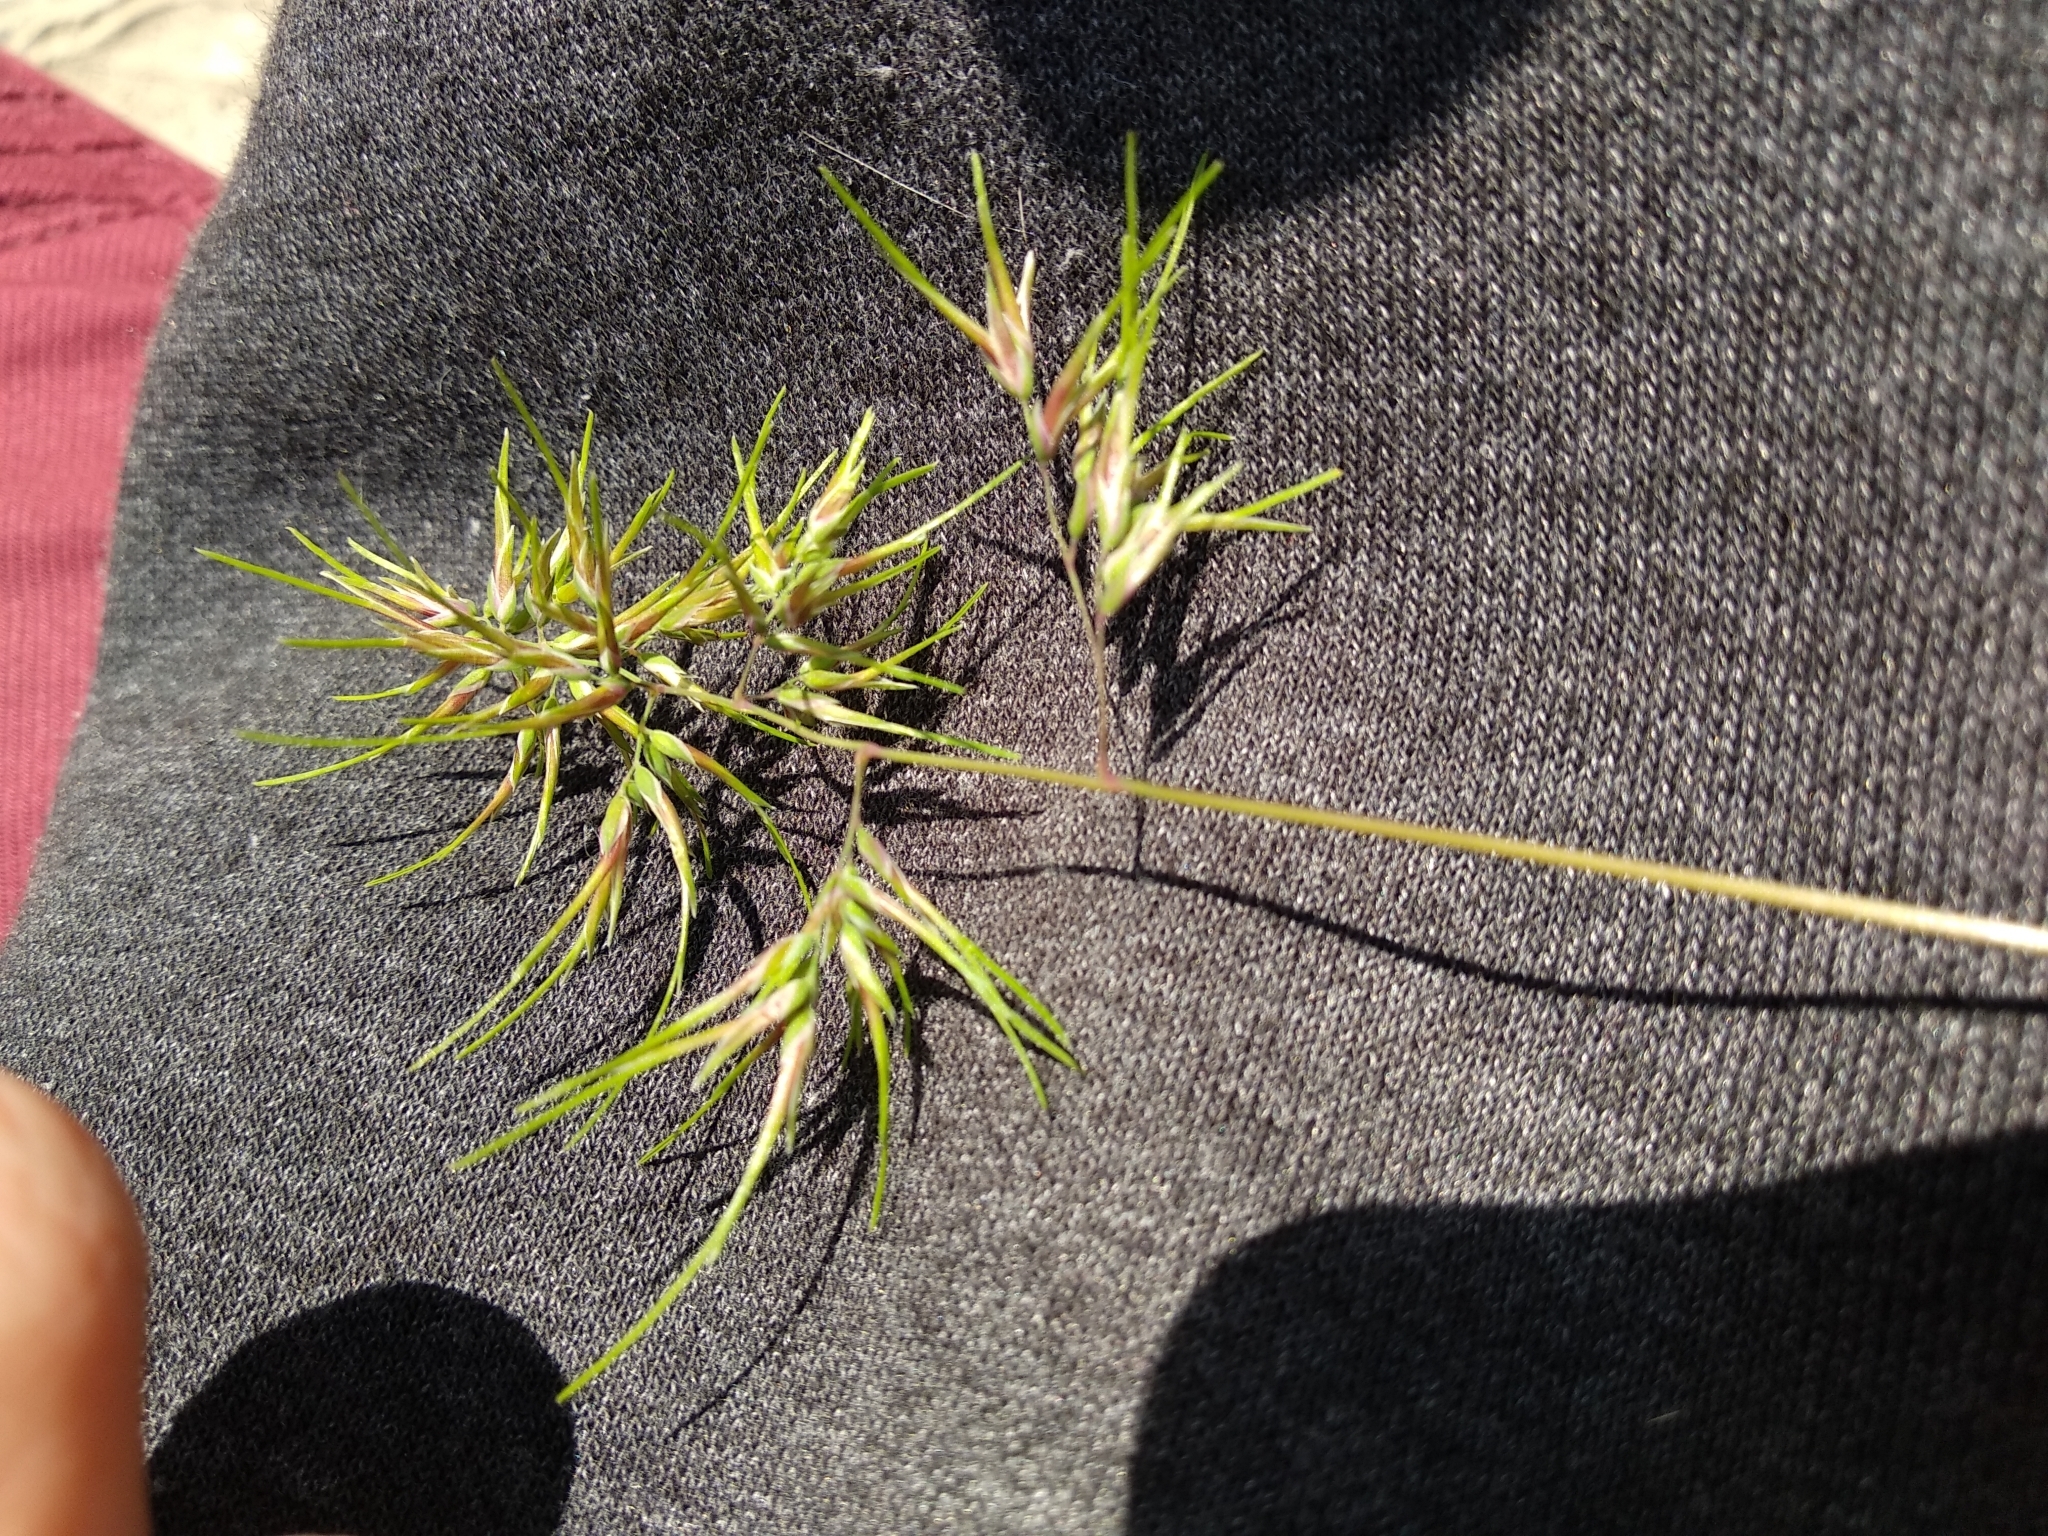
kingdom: Plantae
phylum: Tracheophyta
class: Liliopsida
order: Poales
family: Poaceae
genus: Poa
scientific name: Poa bulbosa
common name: Bulbous bluegrass
